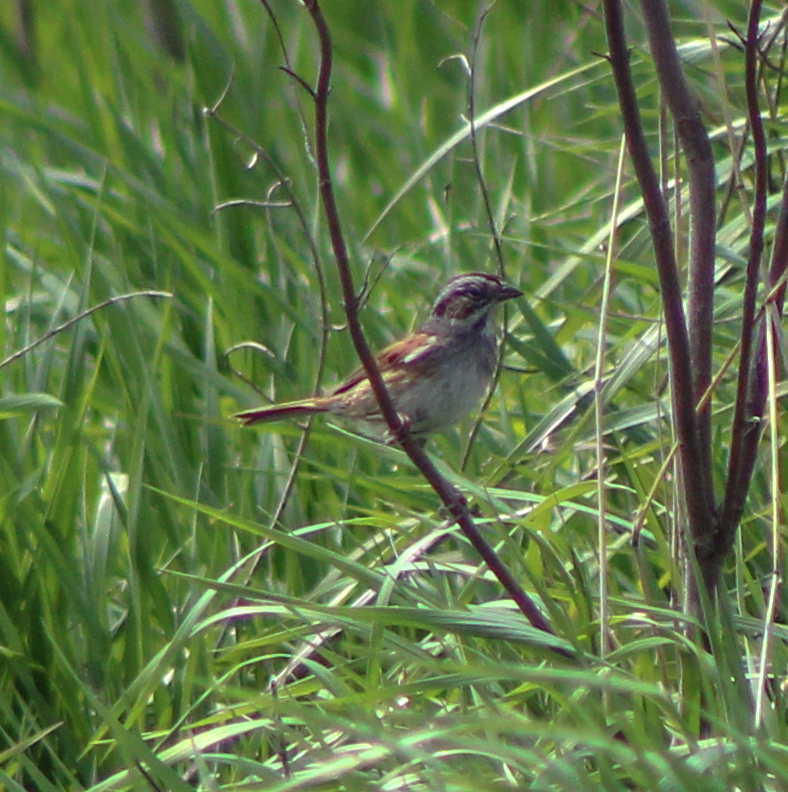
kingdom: Animalia
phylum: Chordata
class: Aves
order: Passeriformes
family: Passerellidae
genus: Melospiza
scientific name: Melospiza georgiana
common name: Swamp sparrow
